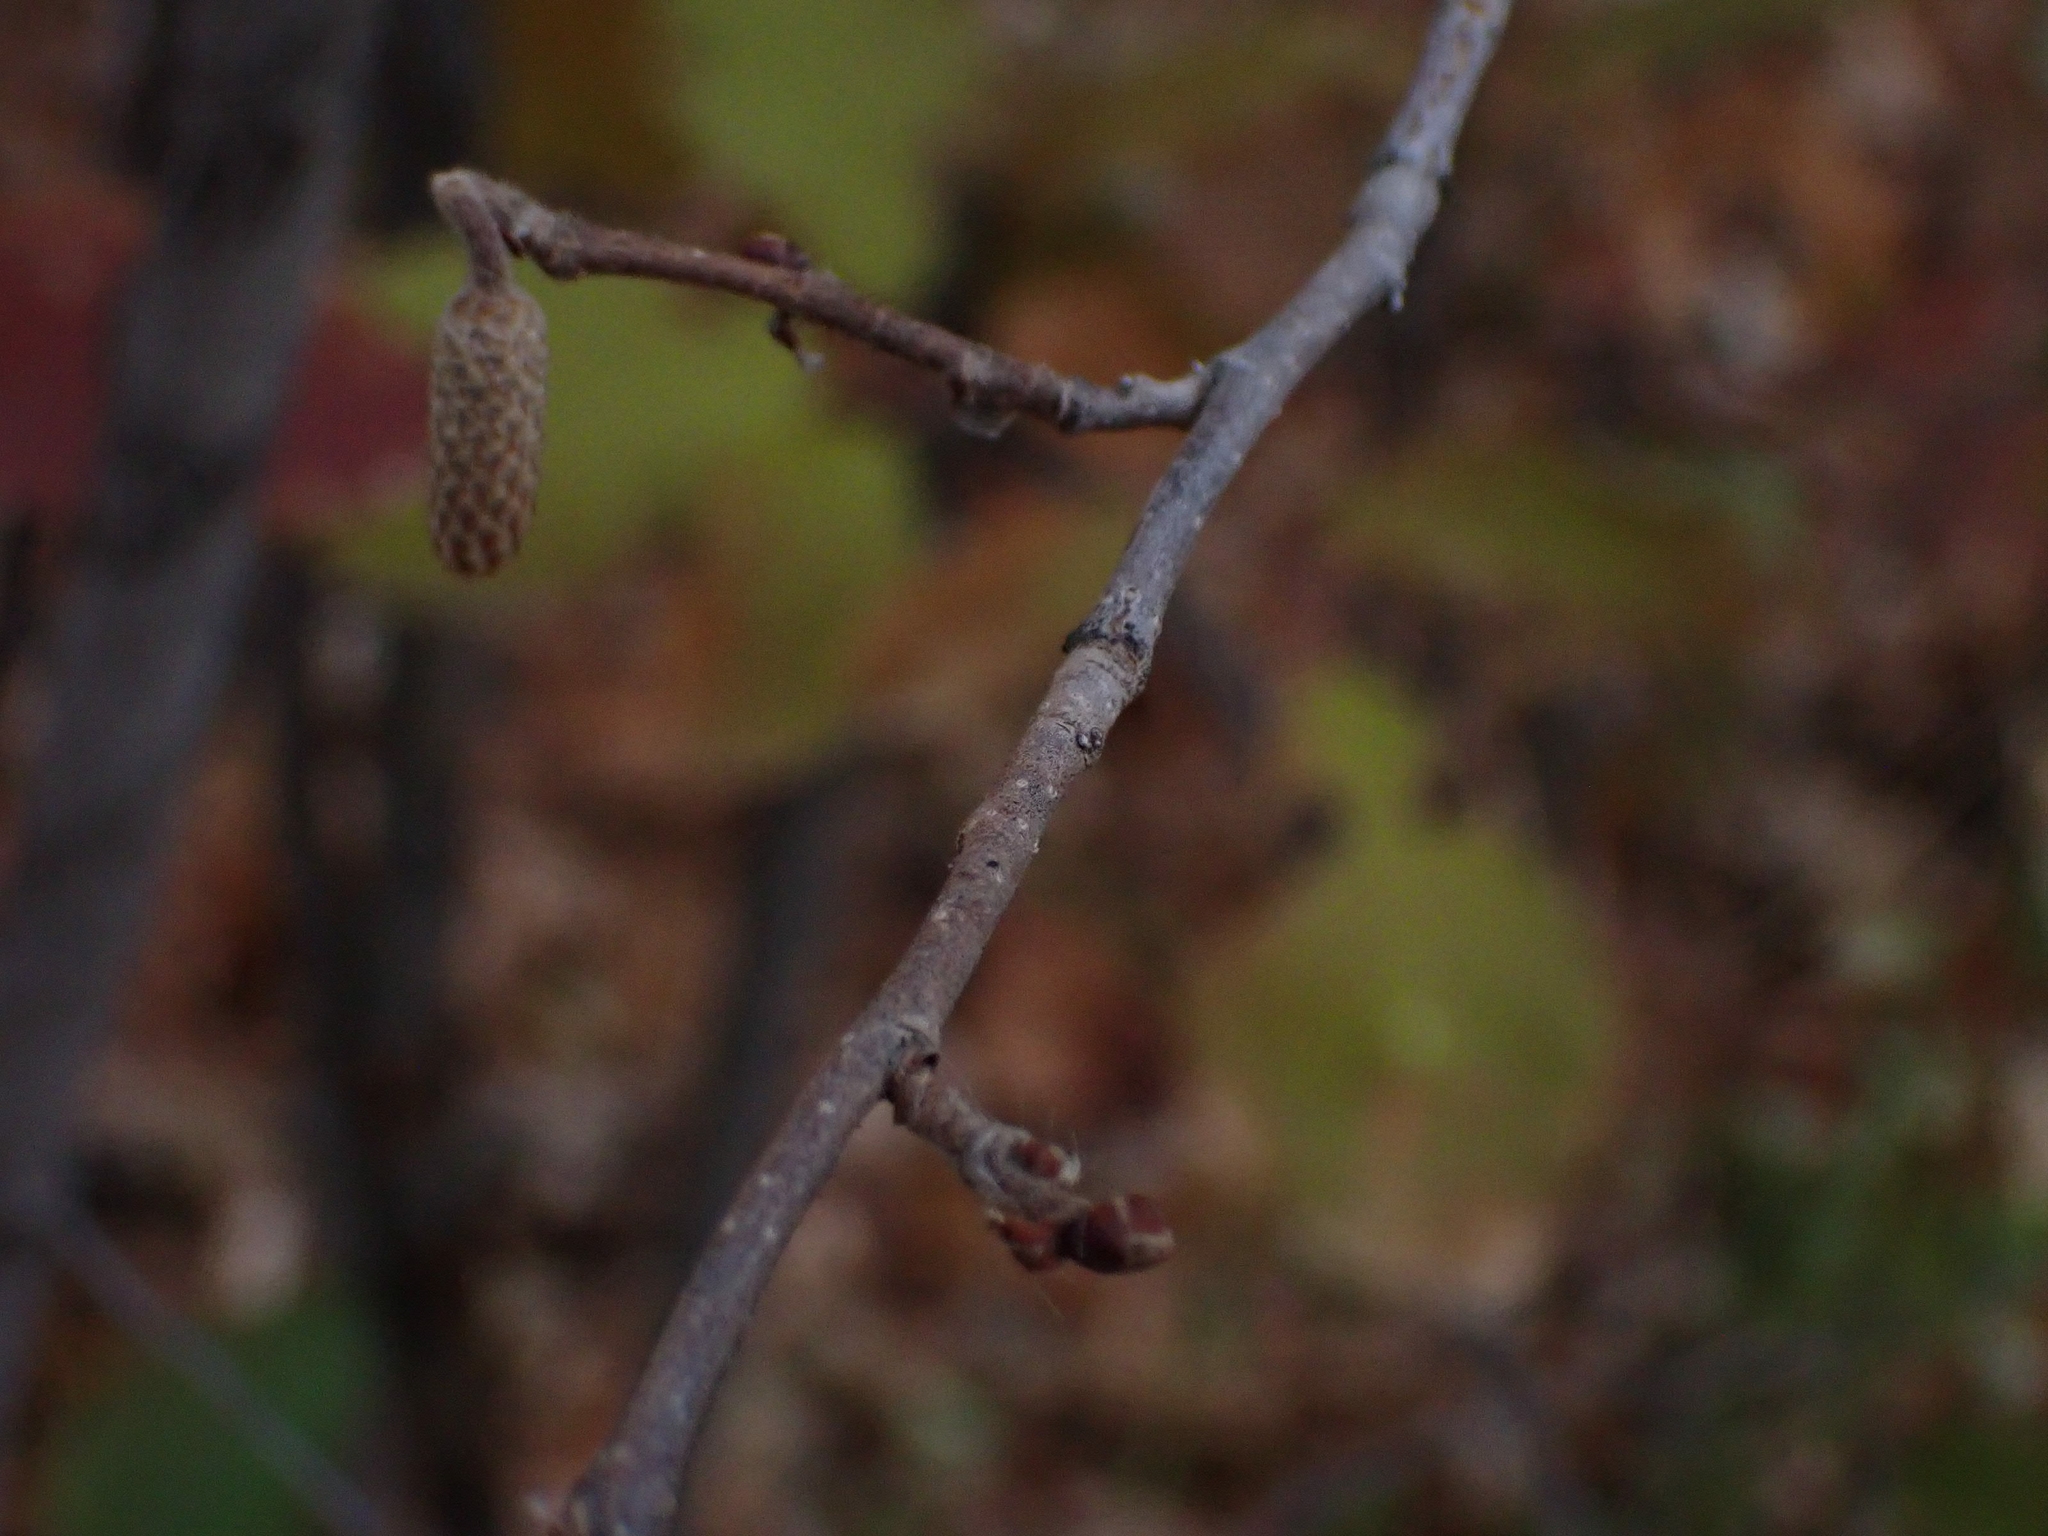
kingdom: Plantae
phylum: Tracheophyta
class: Magnoliopsida
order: Fagales
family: Betulaceae
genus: Corylus
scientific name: Corylus americana
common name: American hazel
